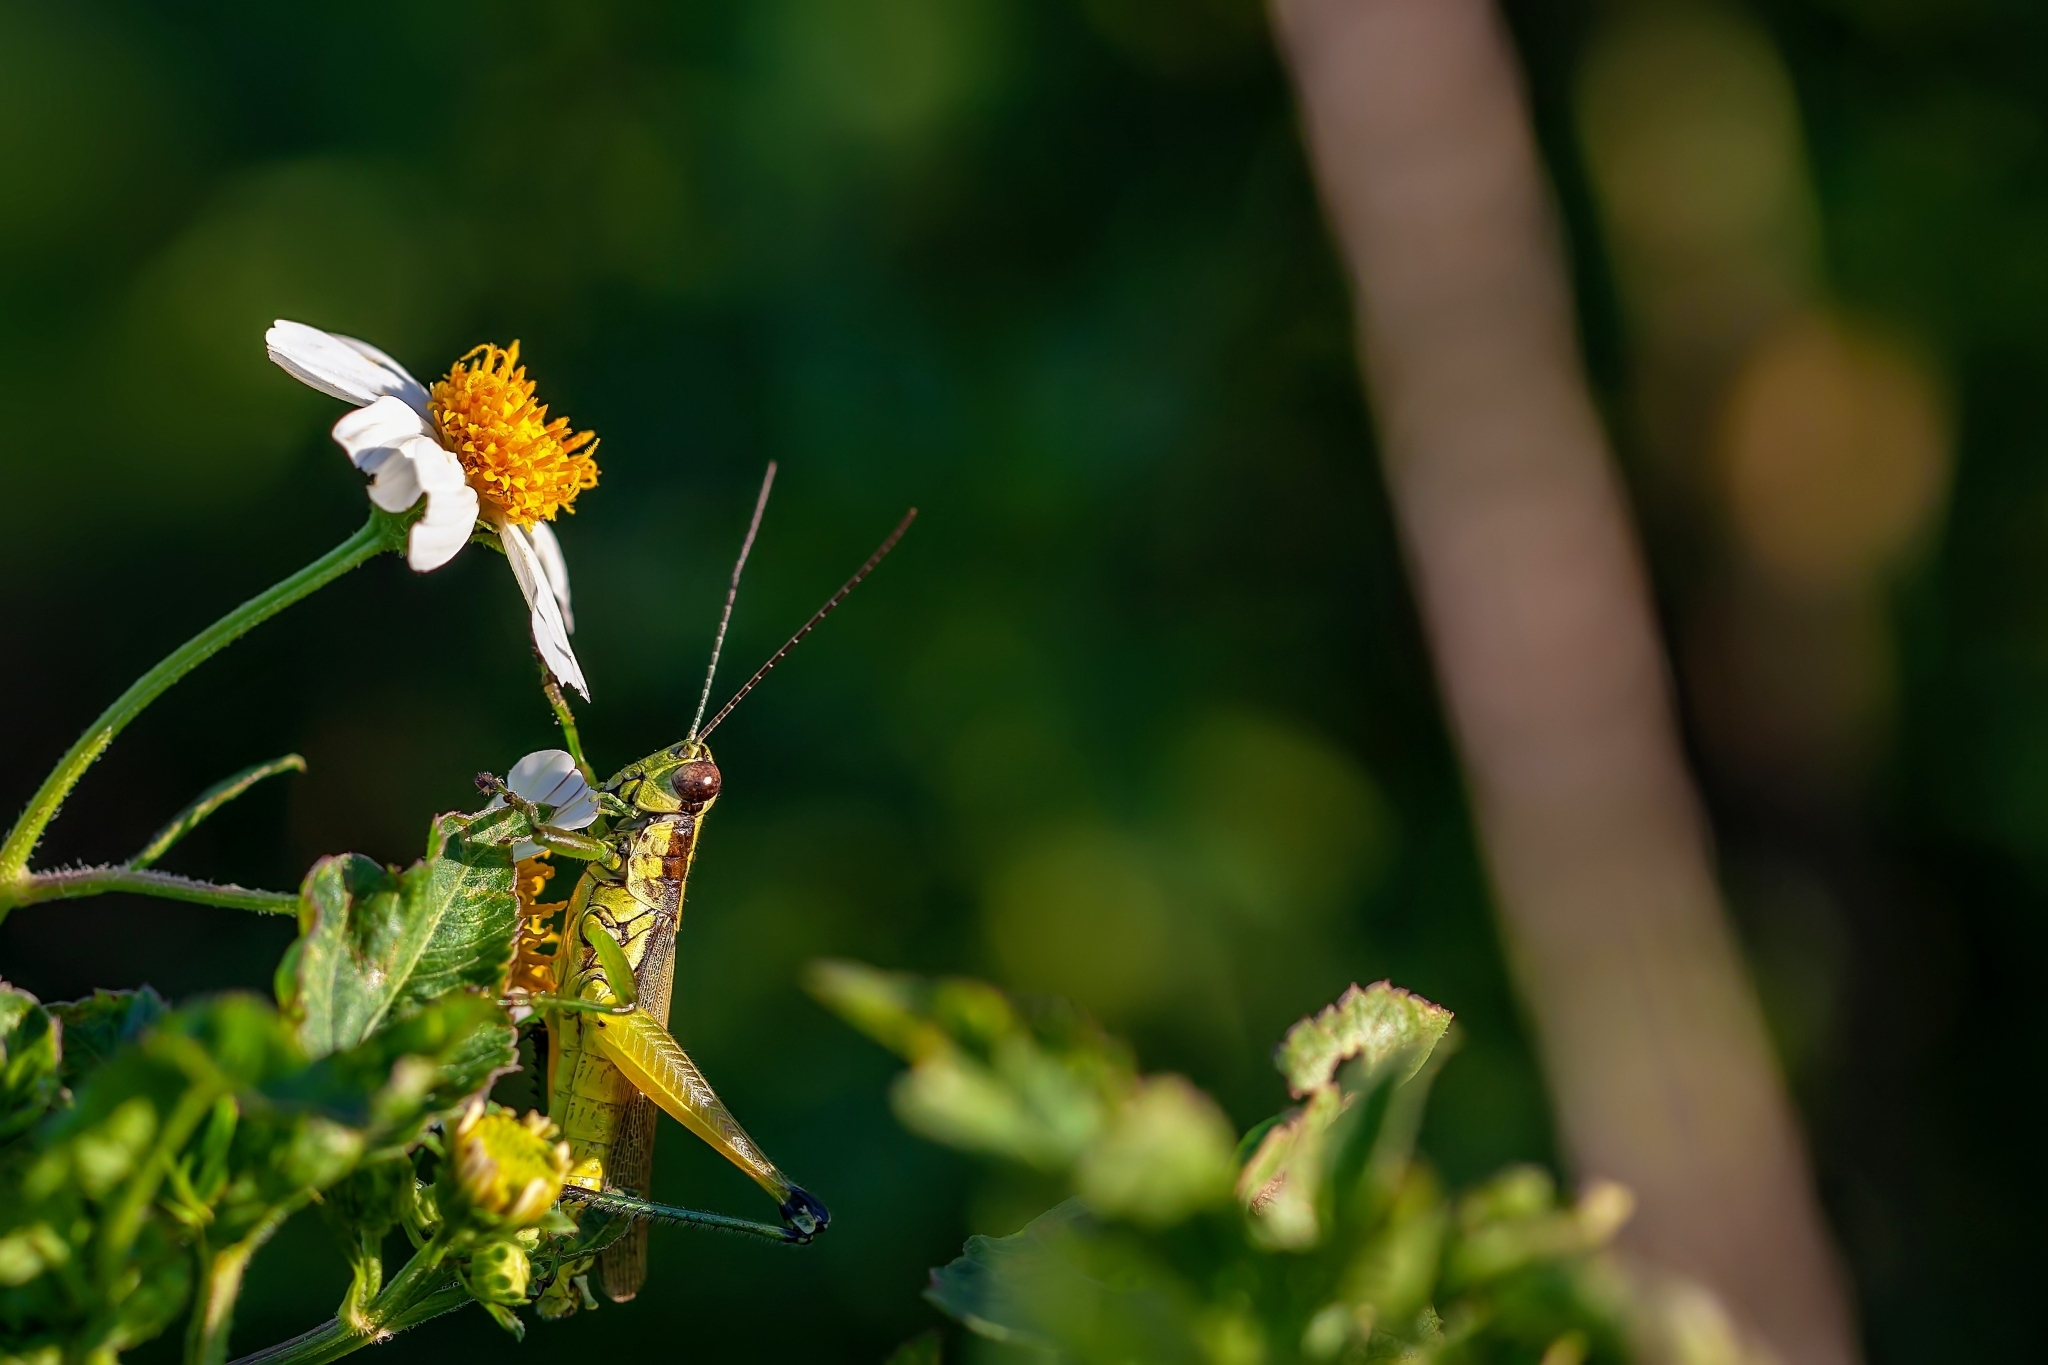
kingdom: Animalia
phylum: Arthropoda
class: Insecta
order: Orthoptera
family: Acrididae
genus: Paroxya
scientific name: Paroxya clavuligera
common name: Olive-green swamp grasshopper
